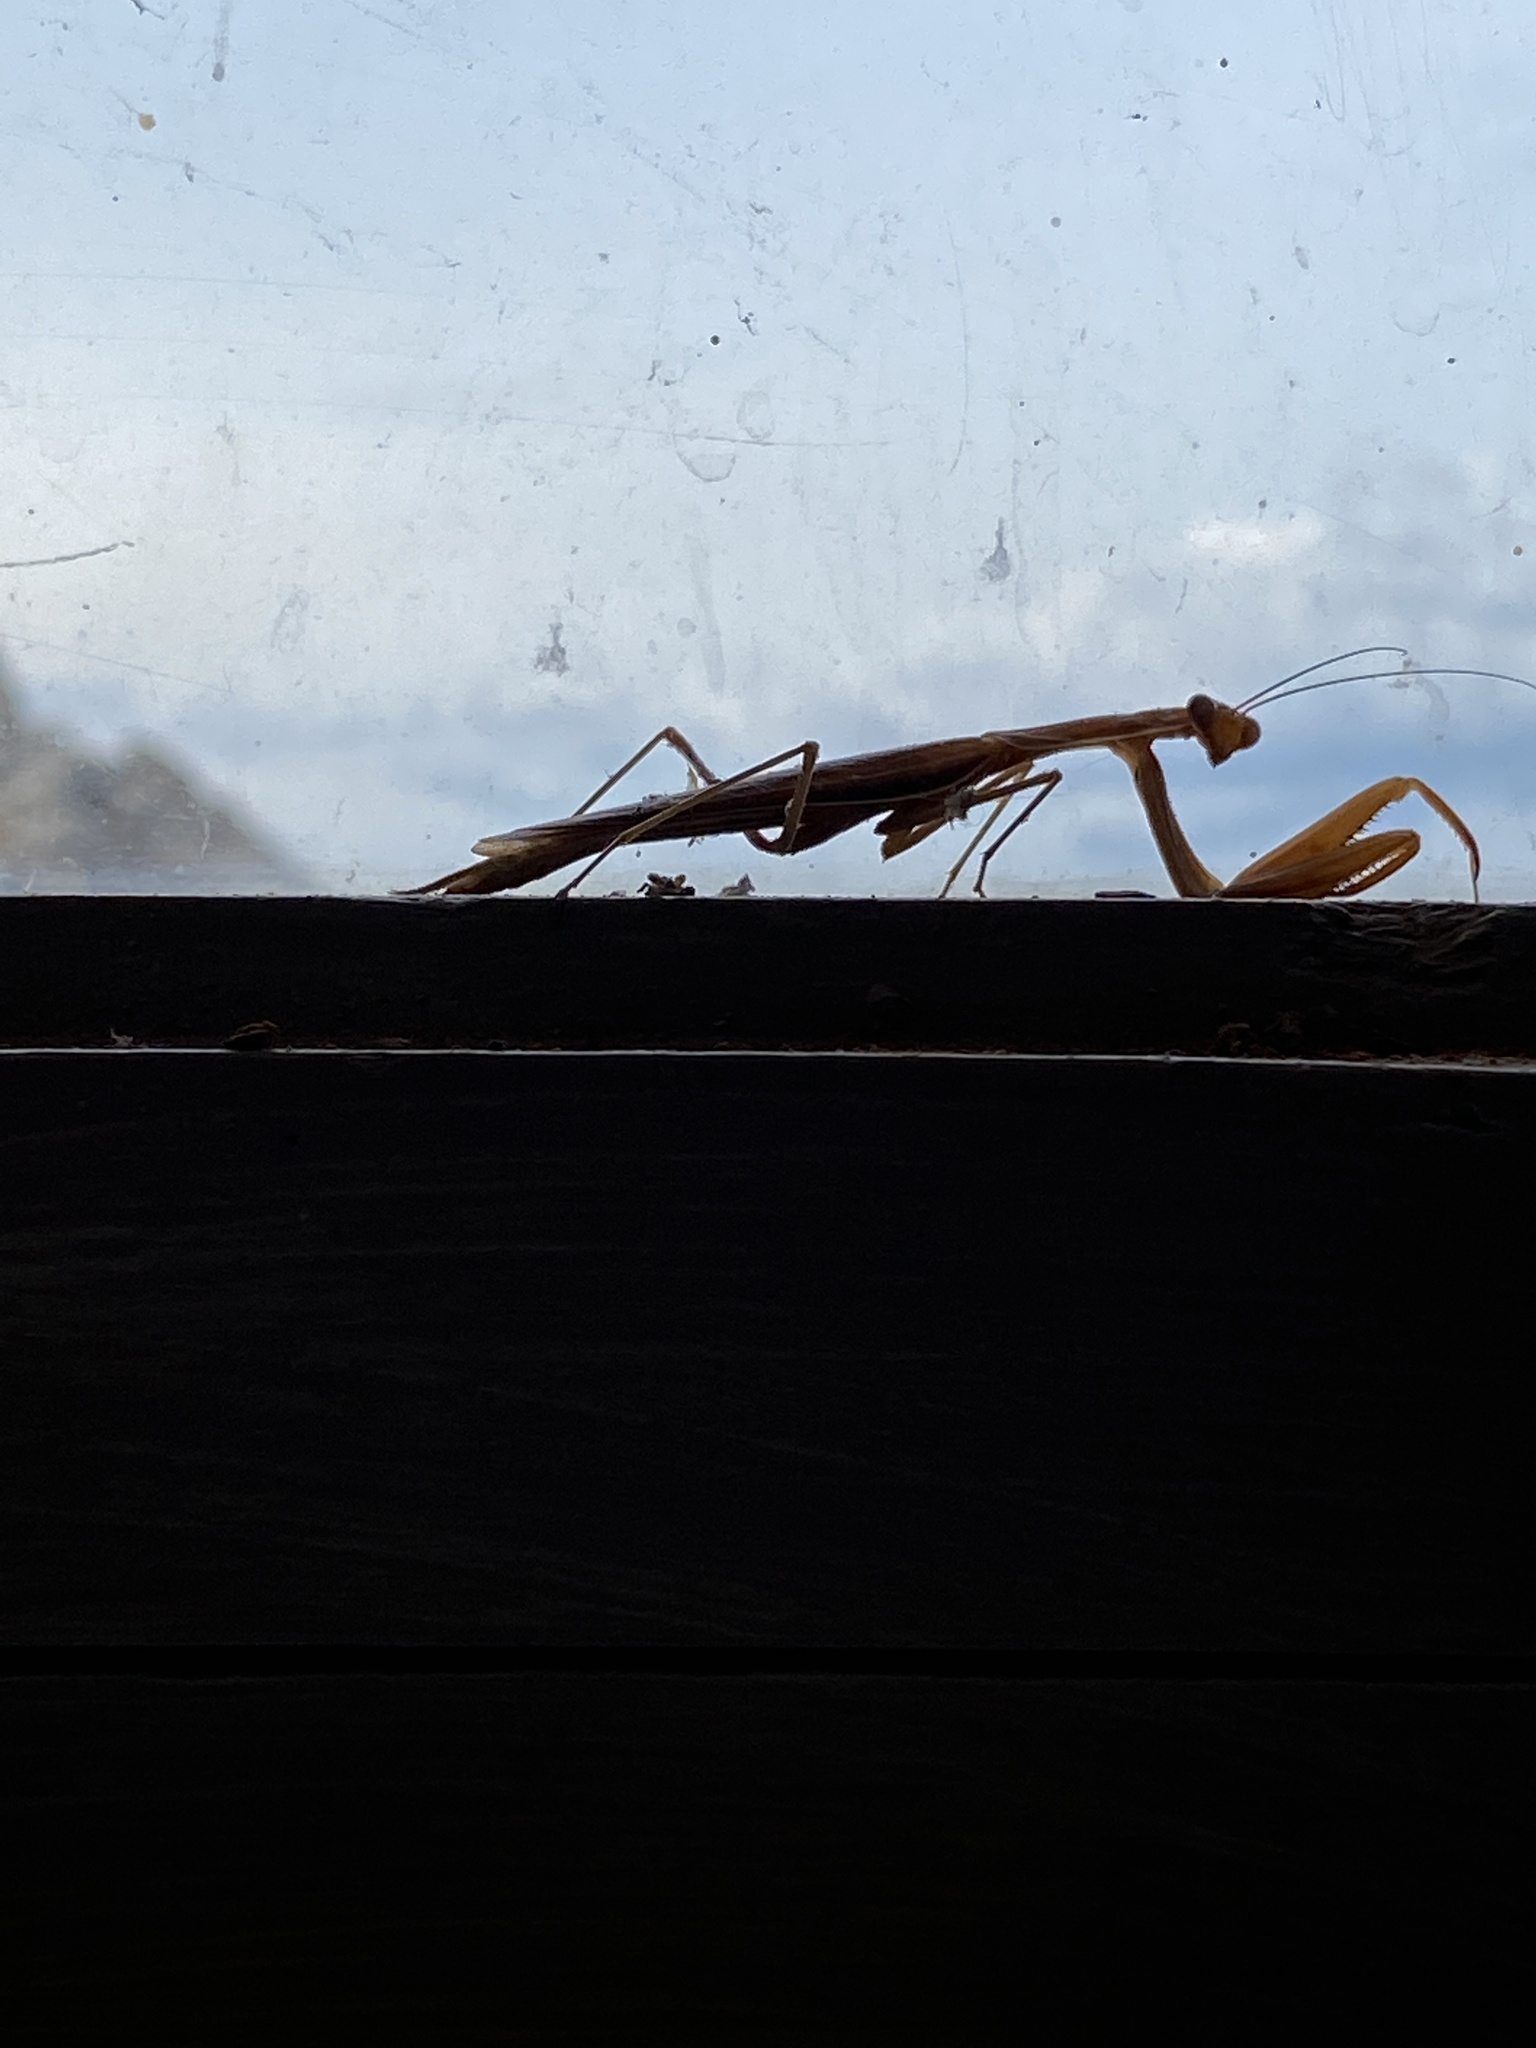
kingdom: Animalia
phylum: Arthropoda
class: Insecta
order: Mantodea
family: Mantidae
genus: Mantis
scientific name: Mantis religiosa
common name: Praying mantis
